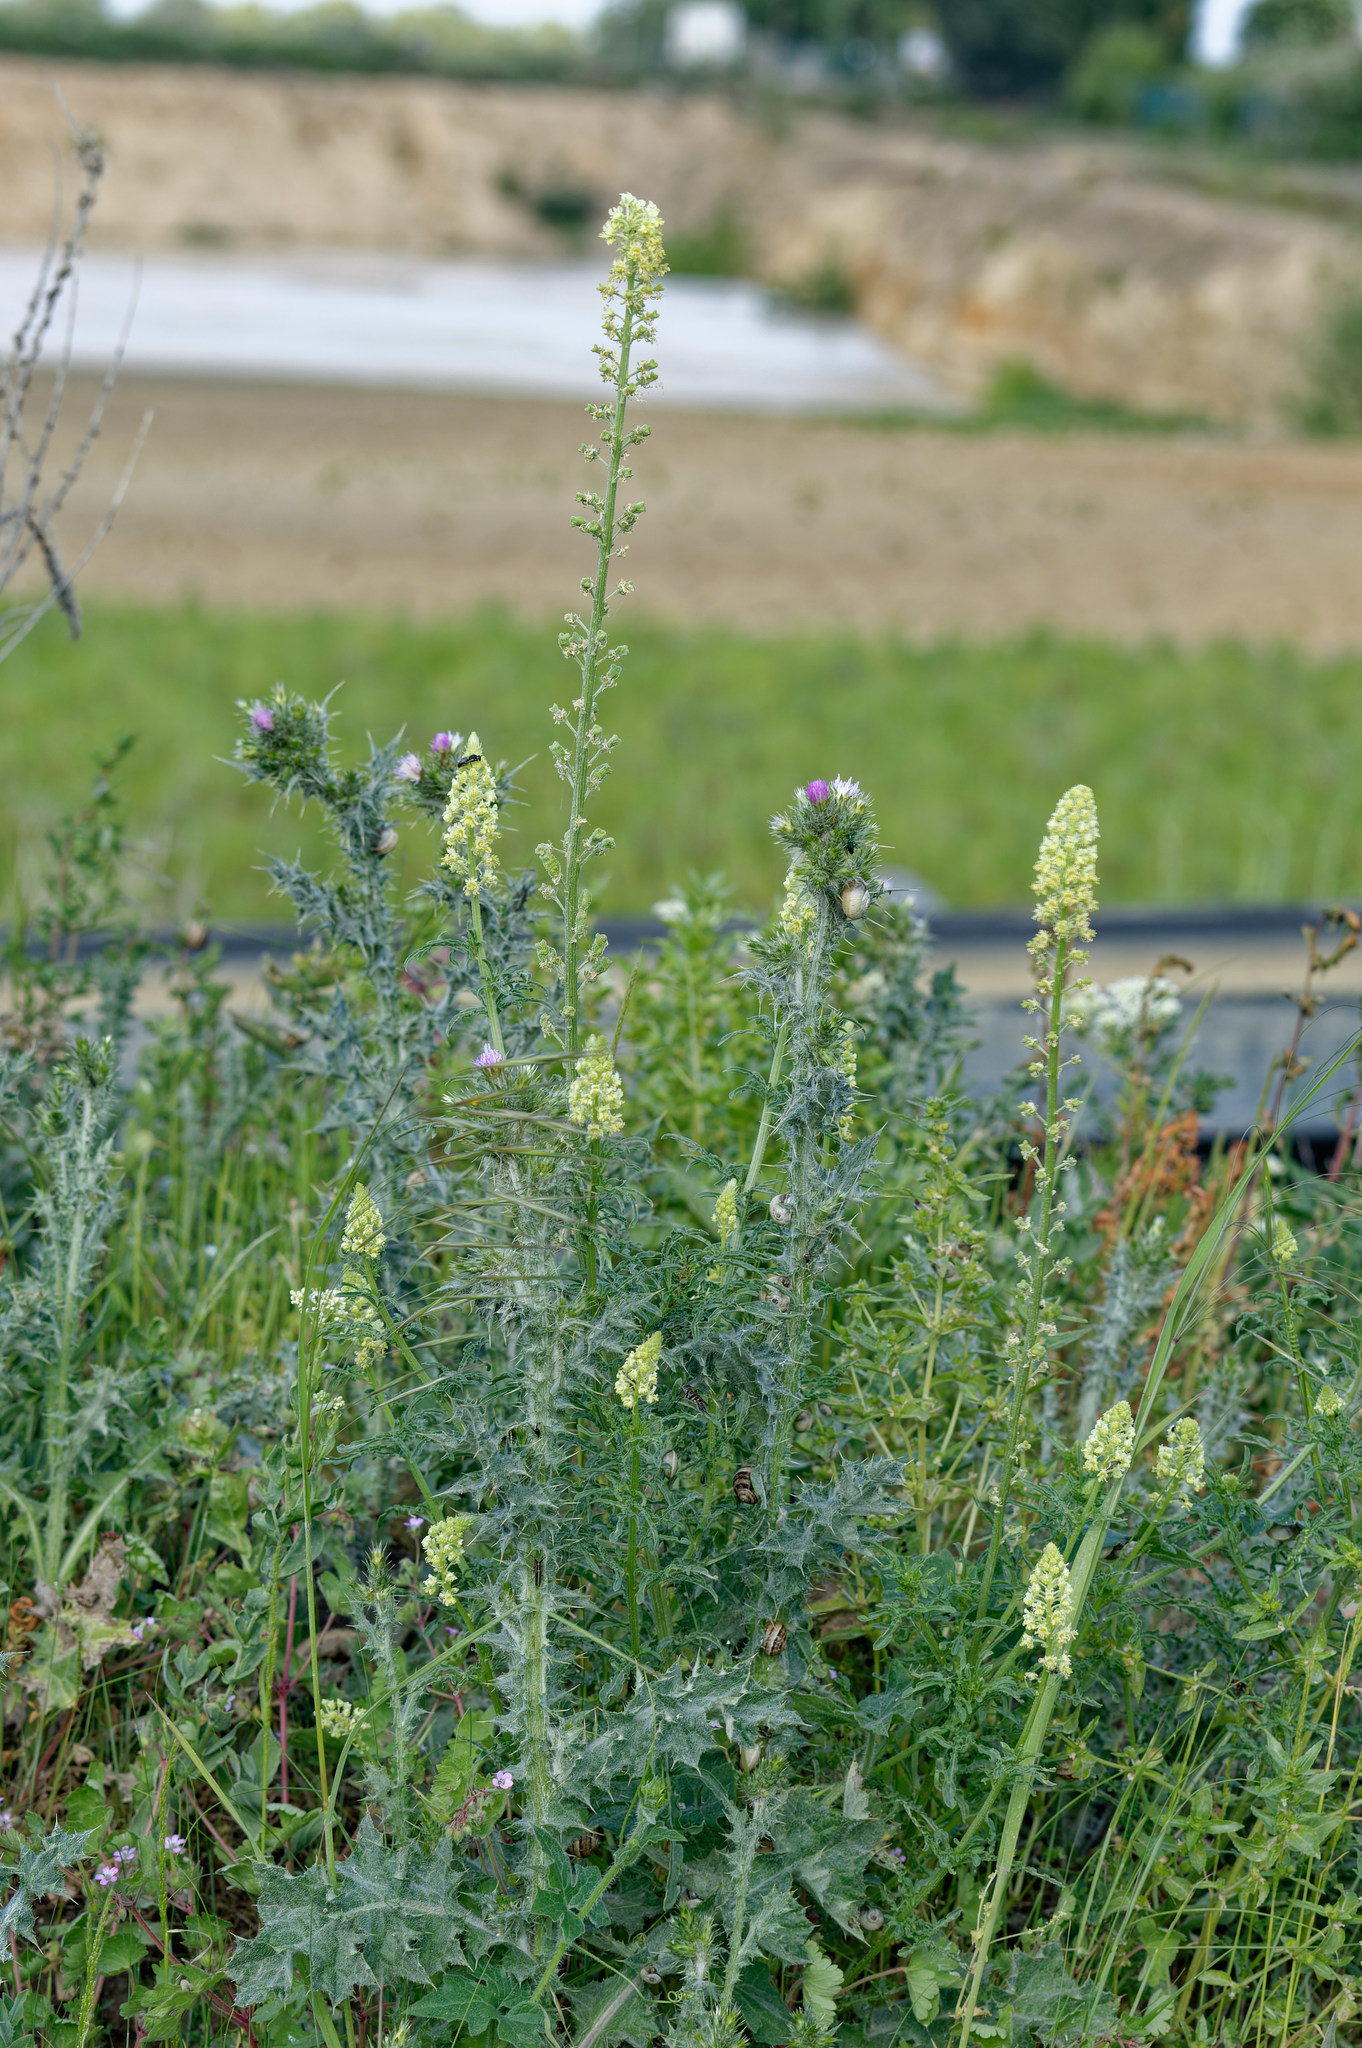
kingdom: Plantae
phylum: Tracheophyta
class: Magnoliopsida
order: Brassicales
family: Resedaceae
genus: Reseda
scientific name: Reseda lutea
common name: Wild mignonette
